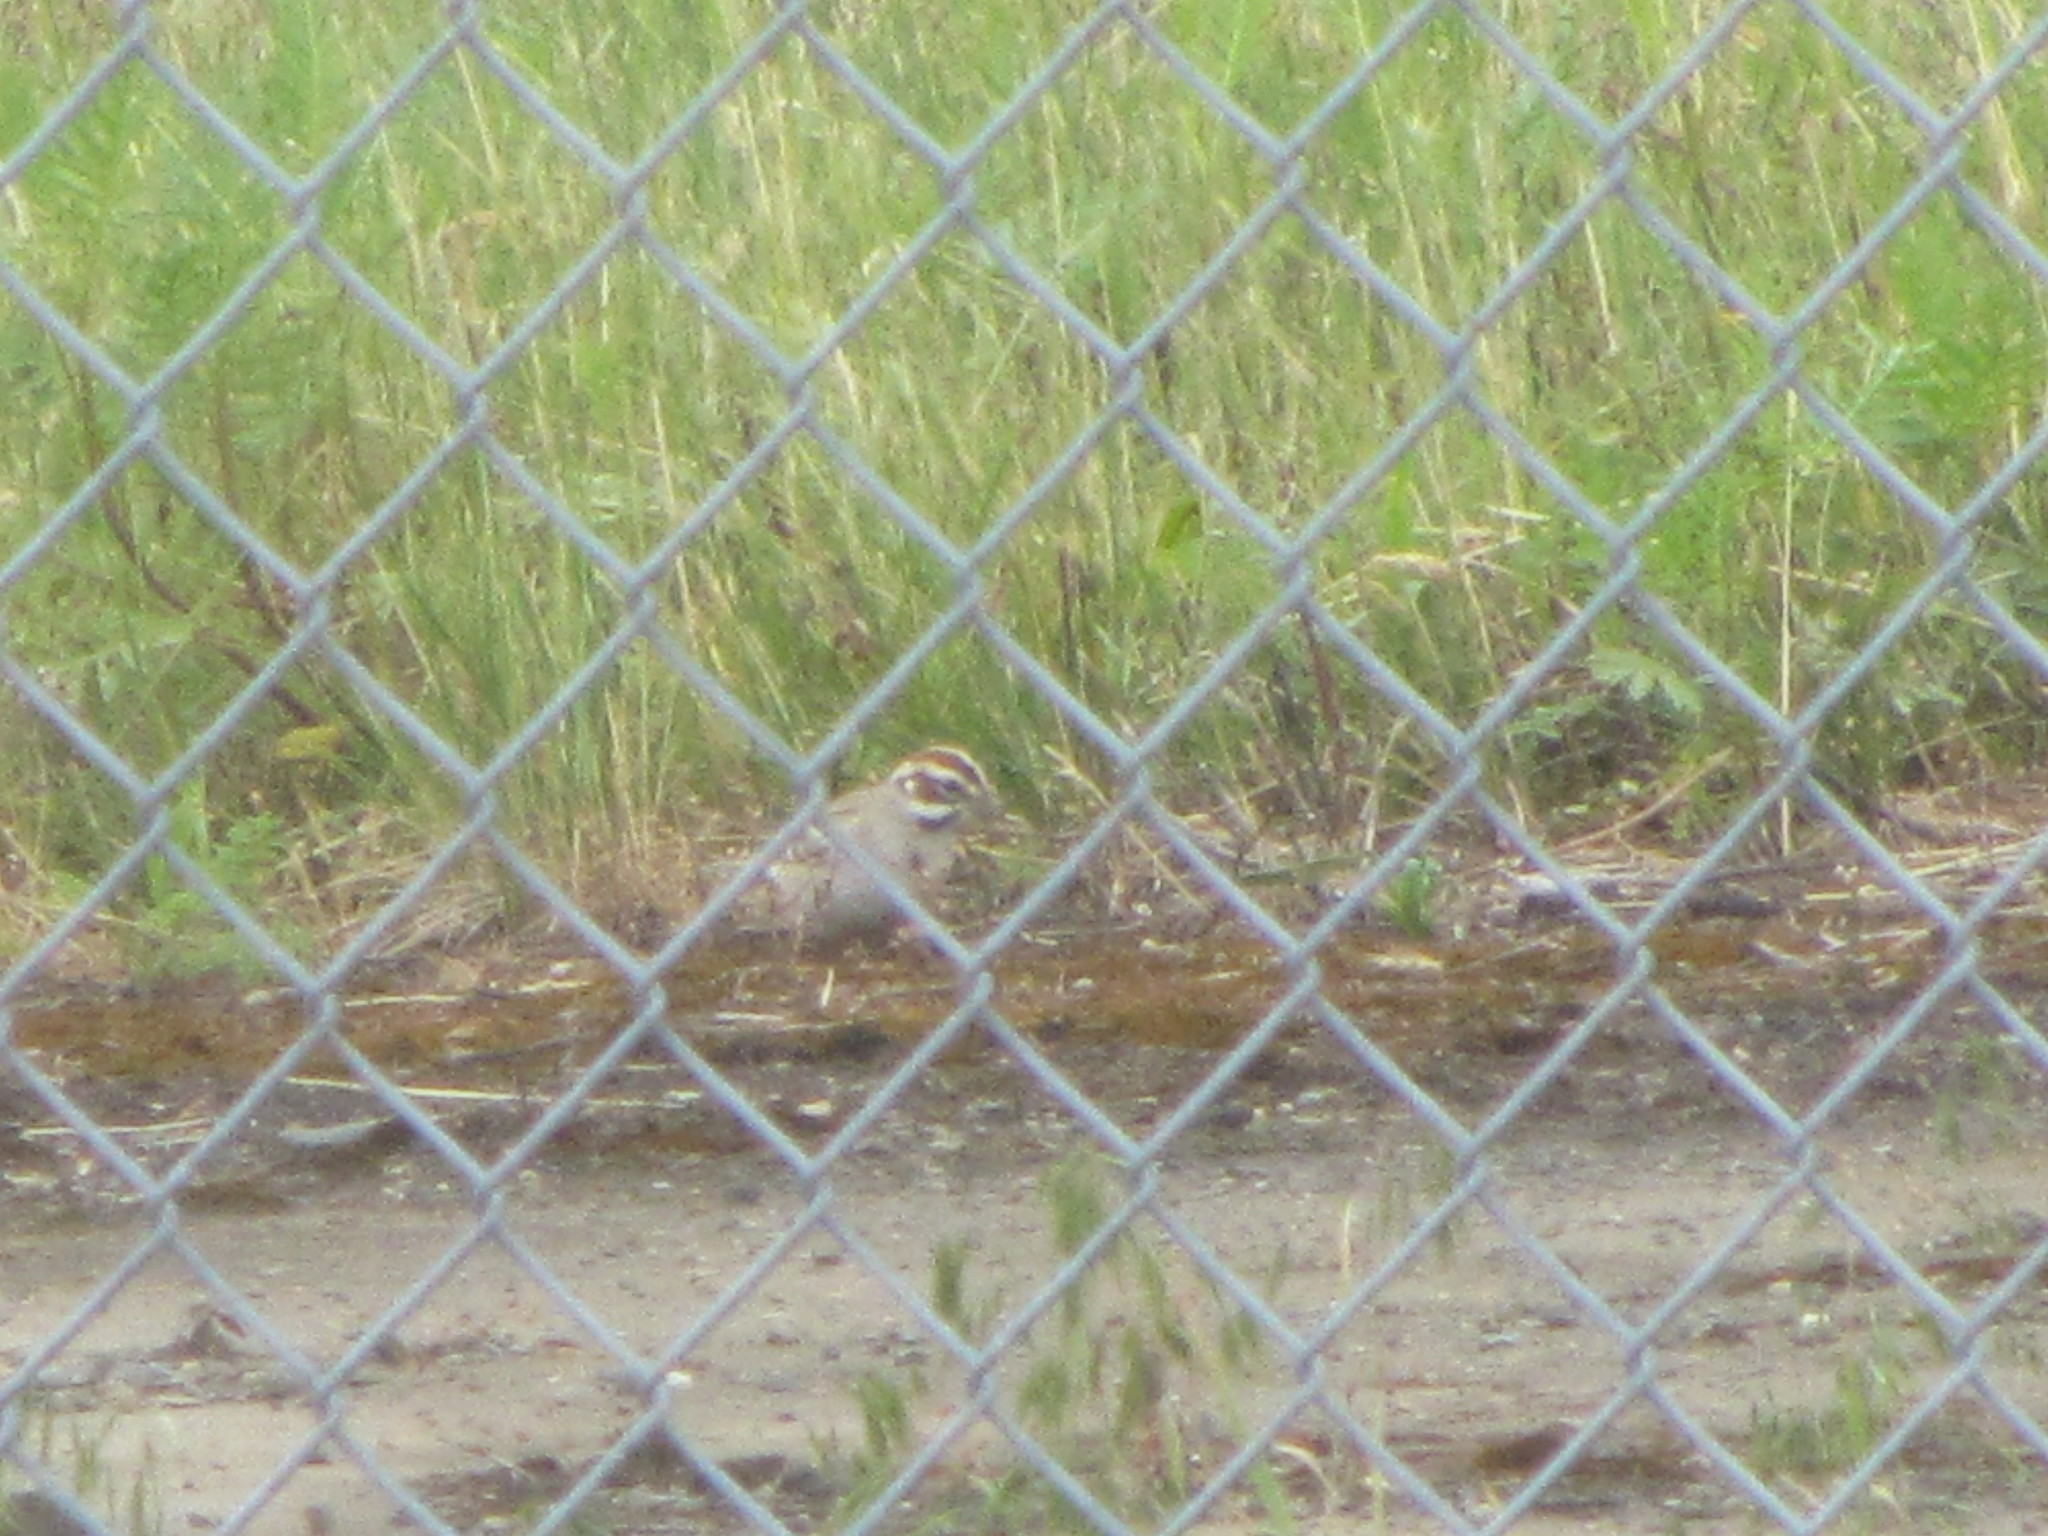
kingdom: Animalia
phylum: Chordata
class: Aves
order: Passeriformes
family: Passerellidae
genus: Chondestes
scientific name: Chondestes grammacus
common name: Lark sparrow
